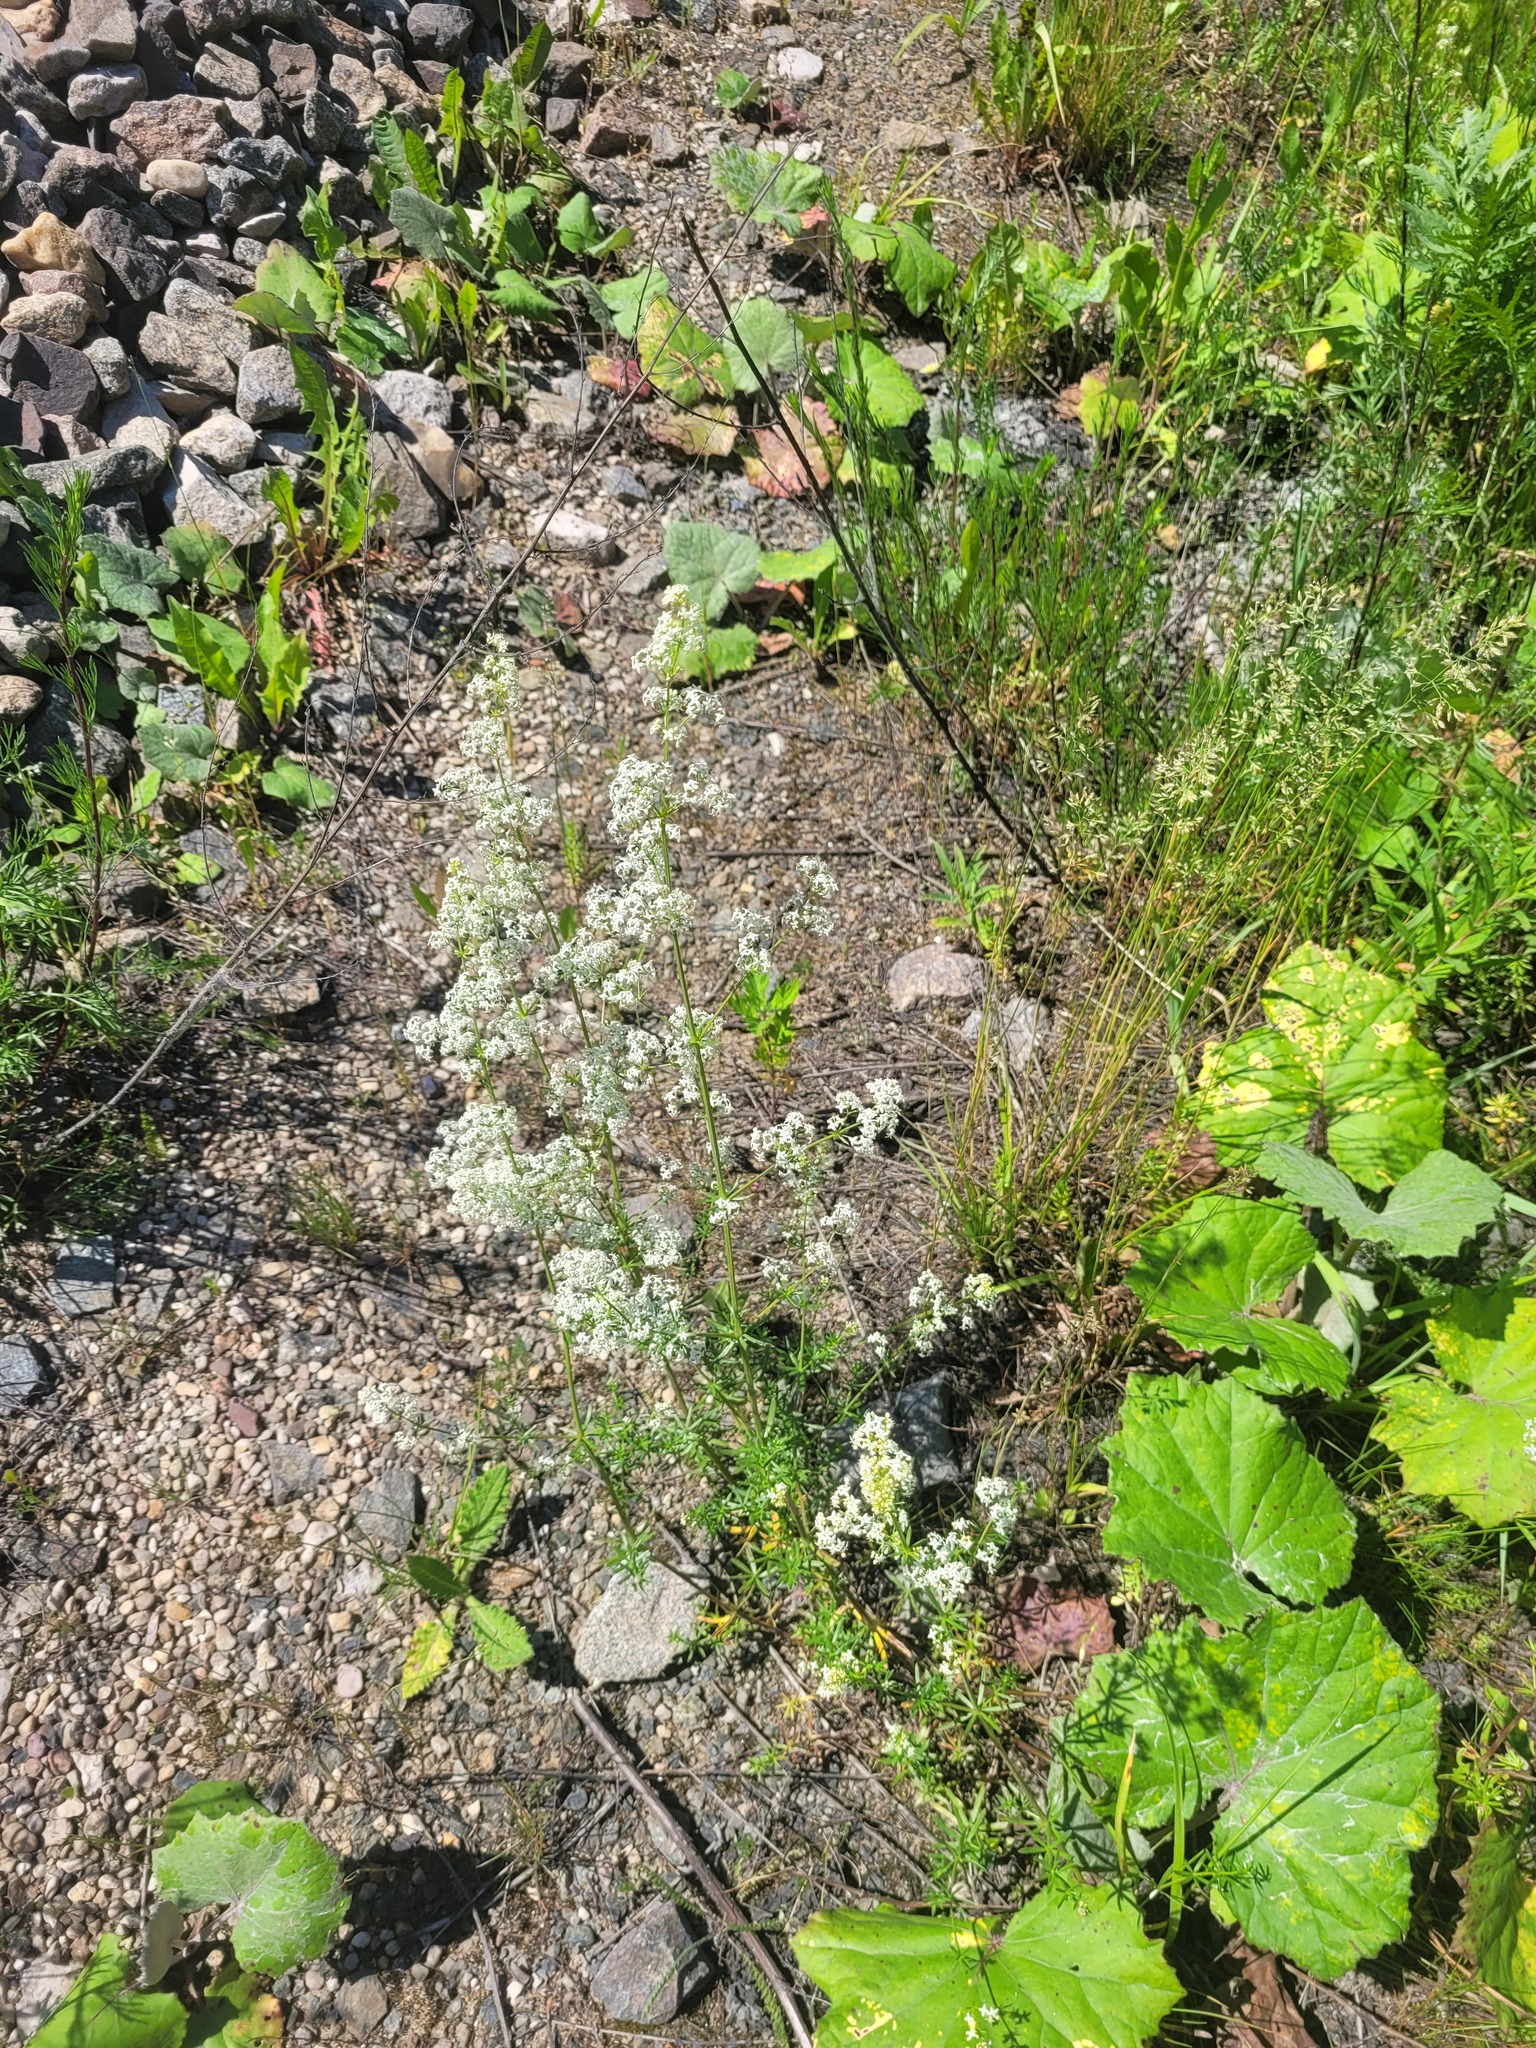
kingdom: Plantae
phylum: Tracheophyta
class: Magnoliopsida
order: Gentianales
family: Rubiaceae
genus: Galium
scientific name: Galium mollugo
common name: Hedge bedstraw
